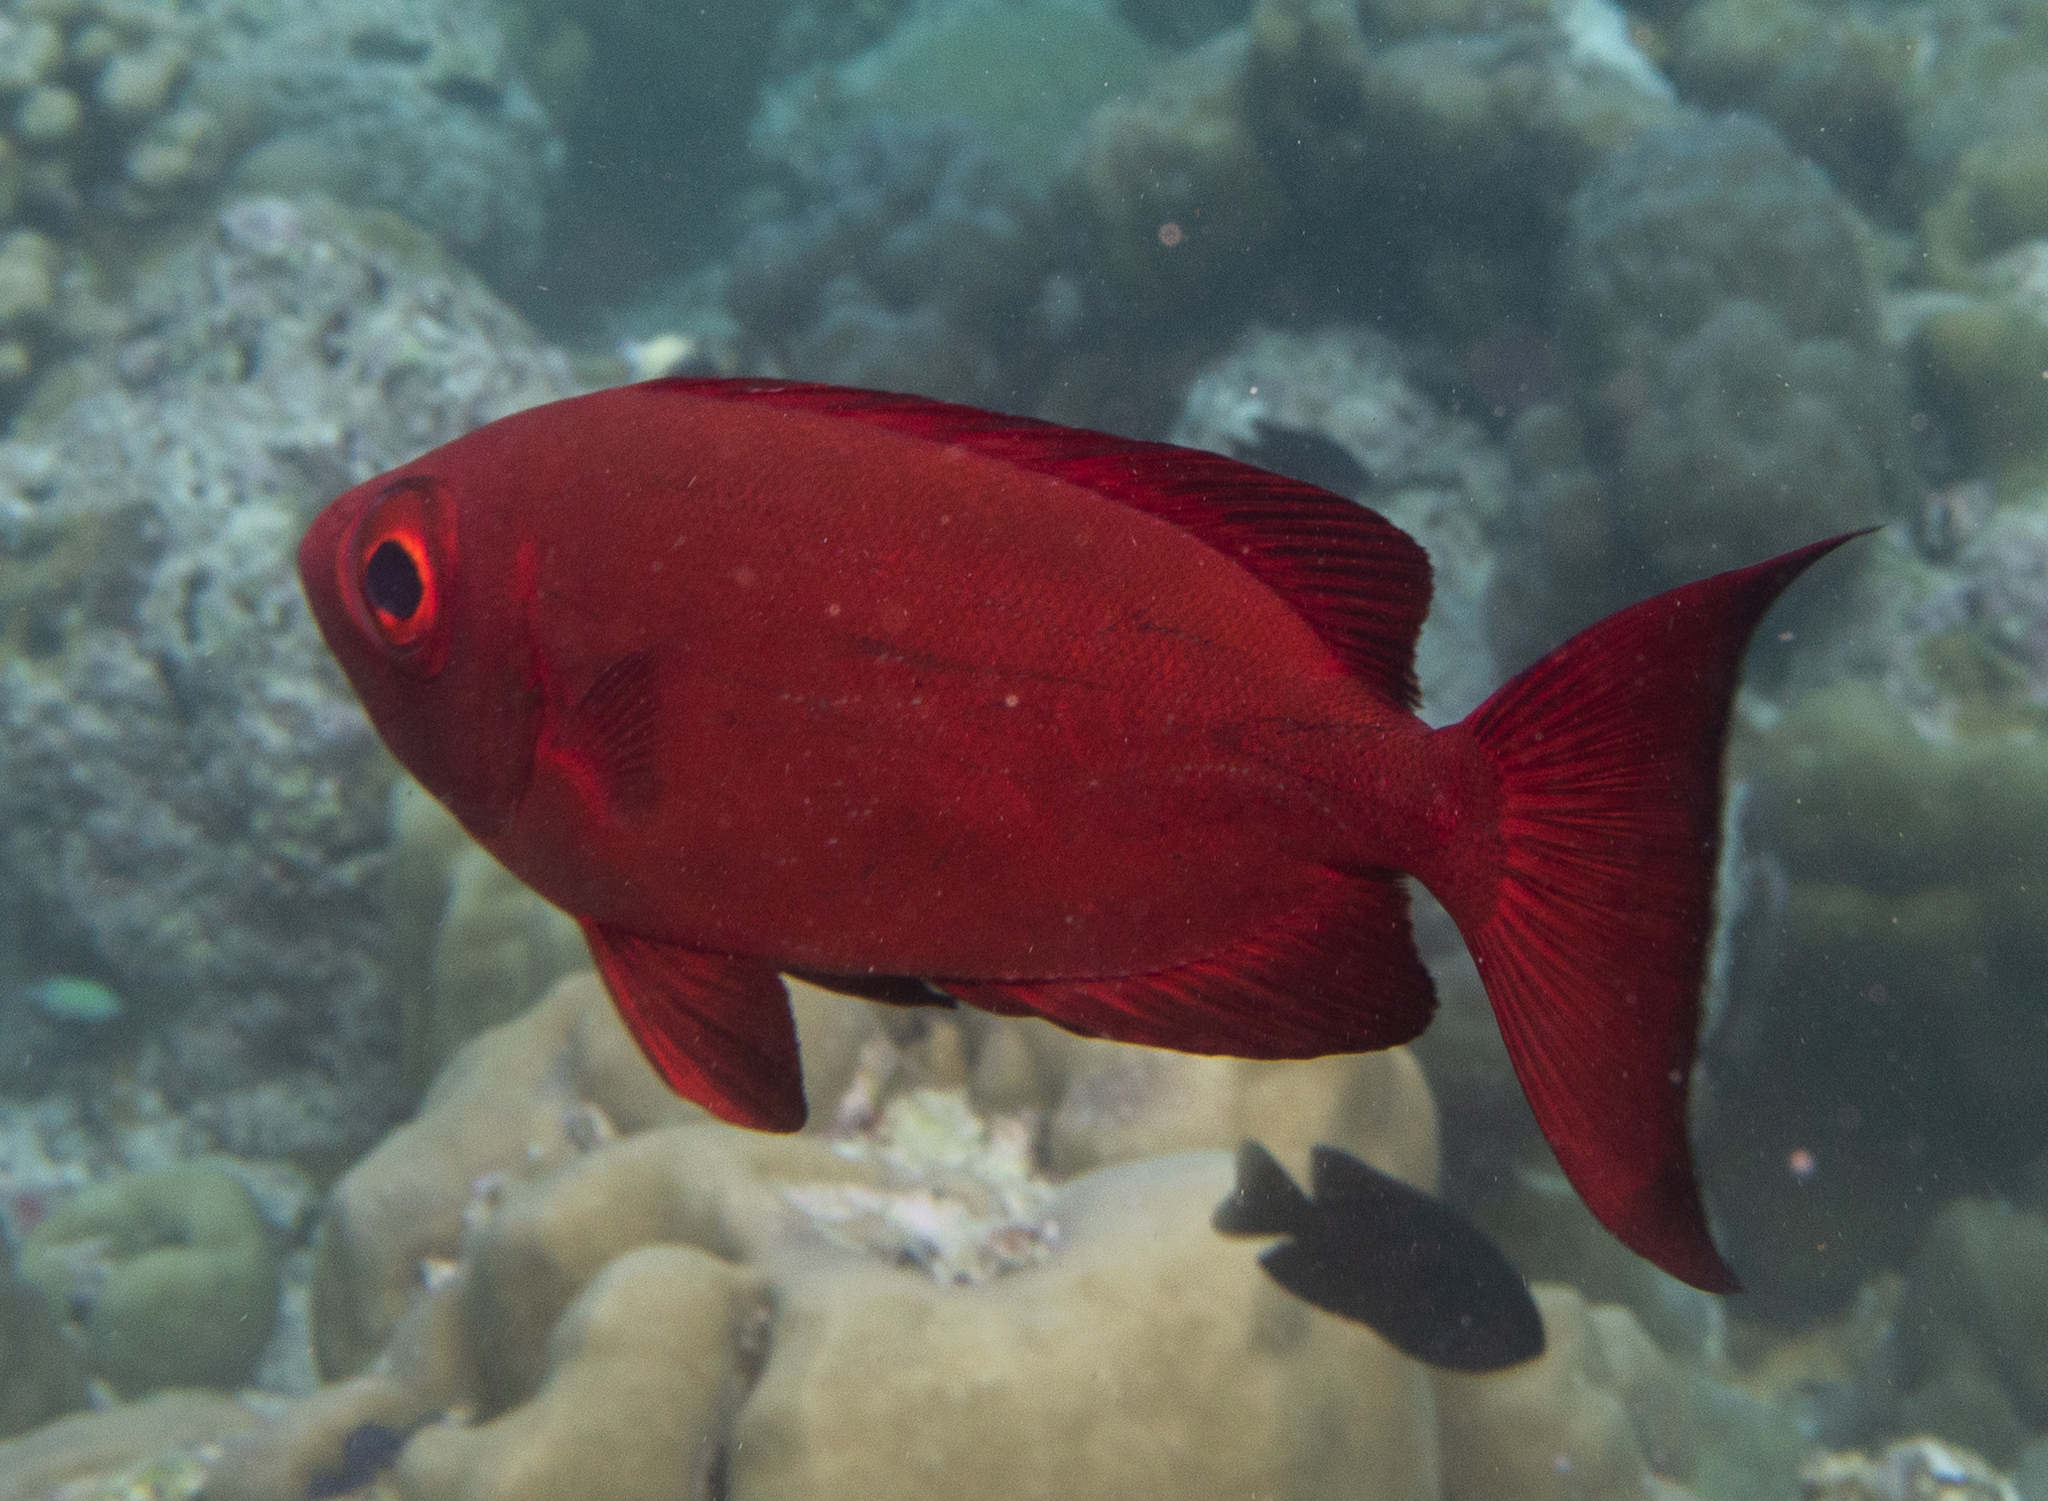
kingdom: Animalia
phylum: Chordata
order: Perciformes
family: Priacanthidae
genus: Priacanthus
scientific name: Priacanthus hamrur
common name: Moontail bullseye
